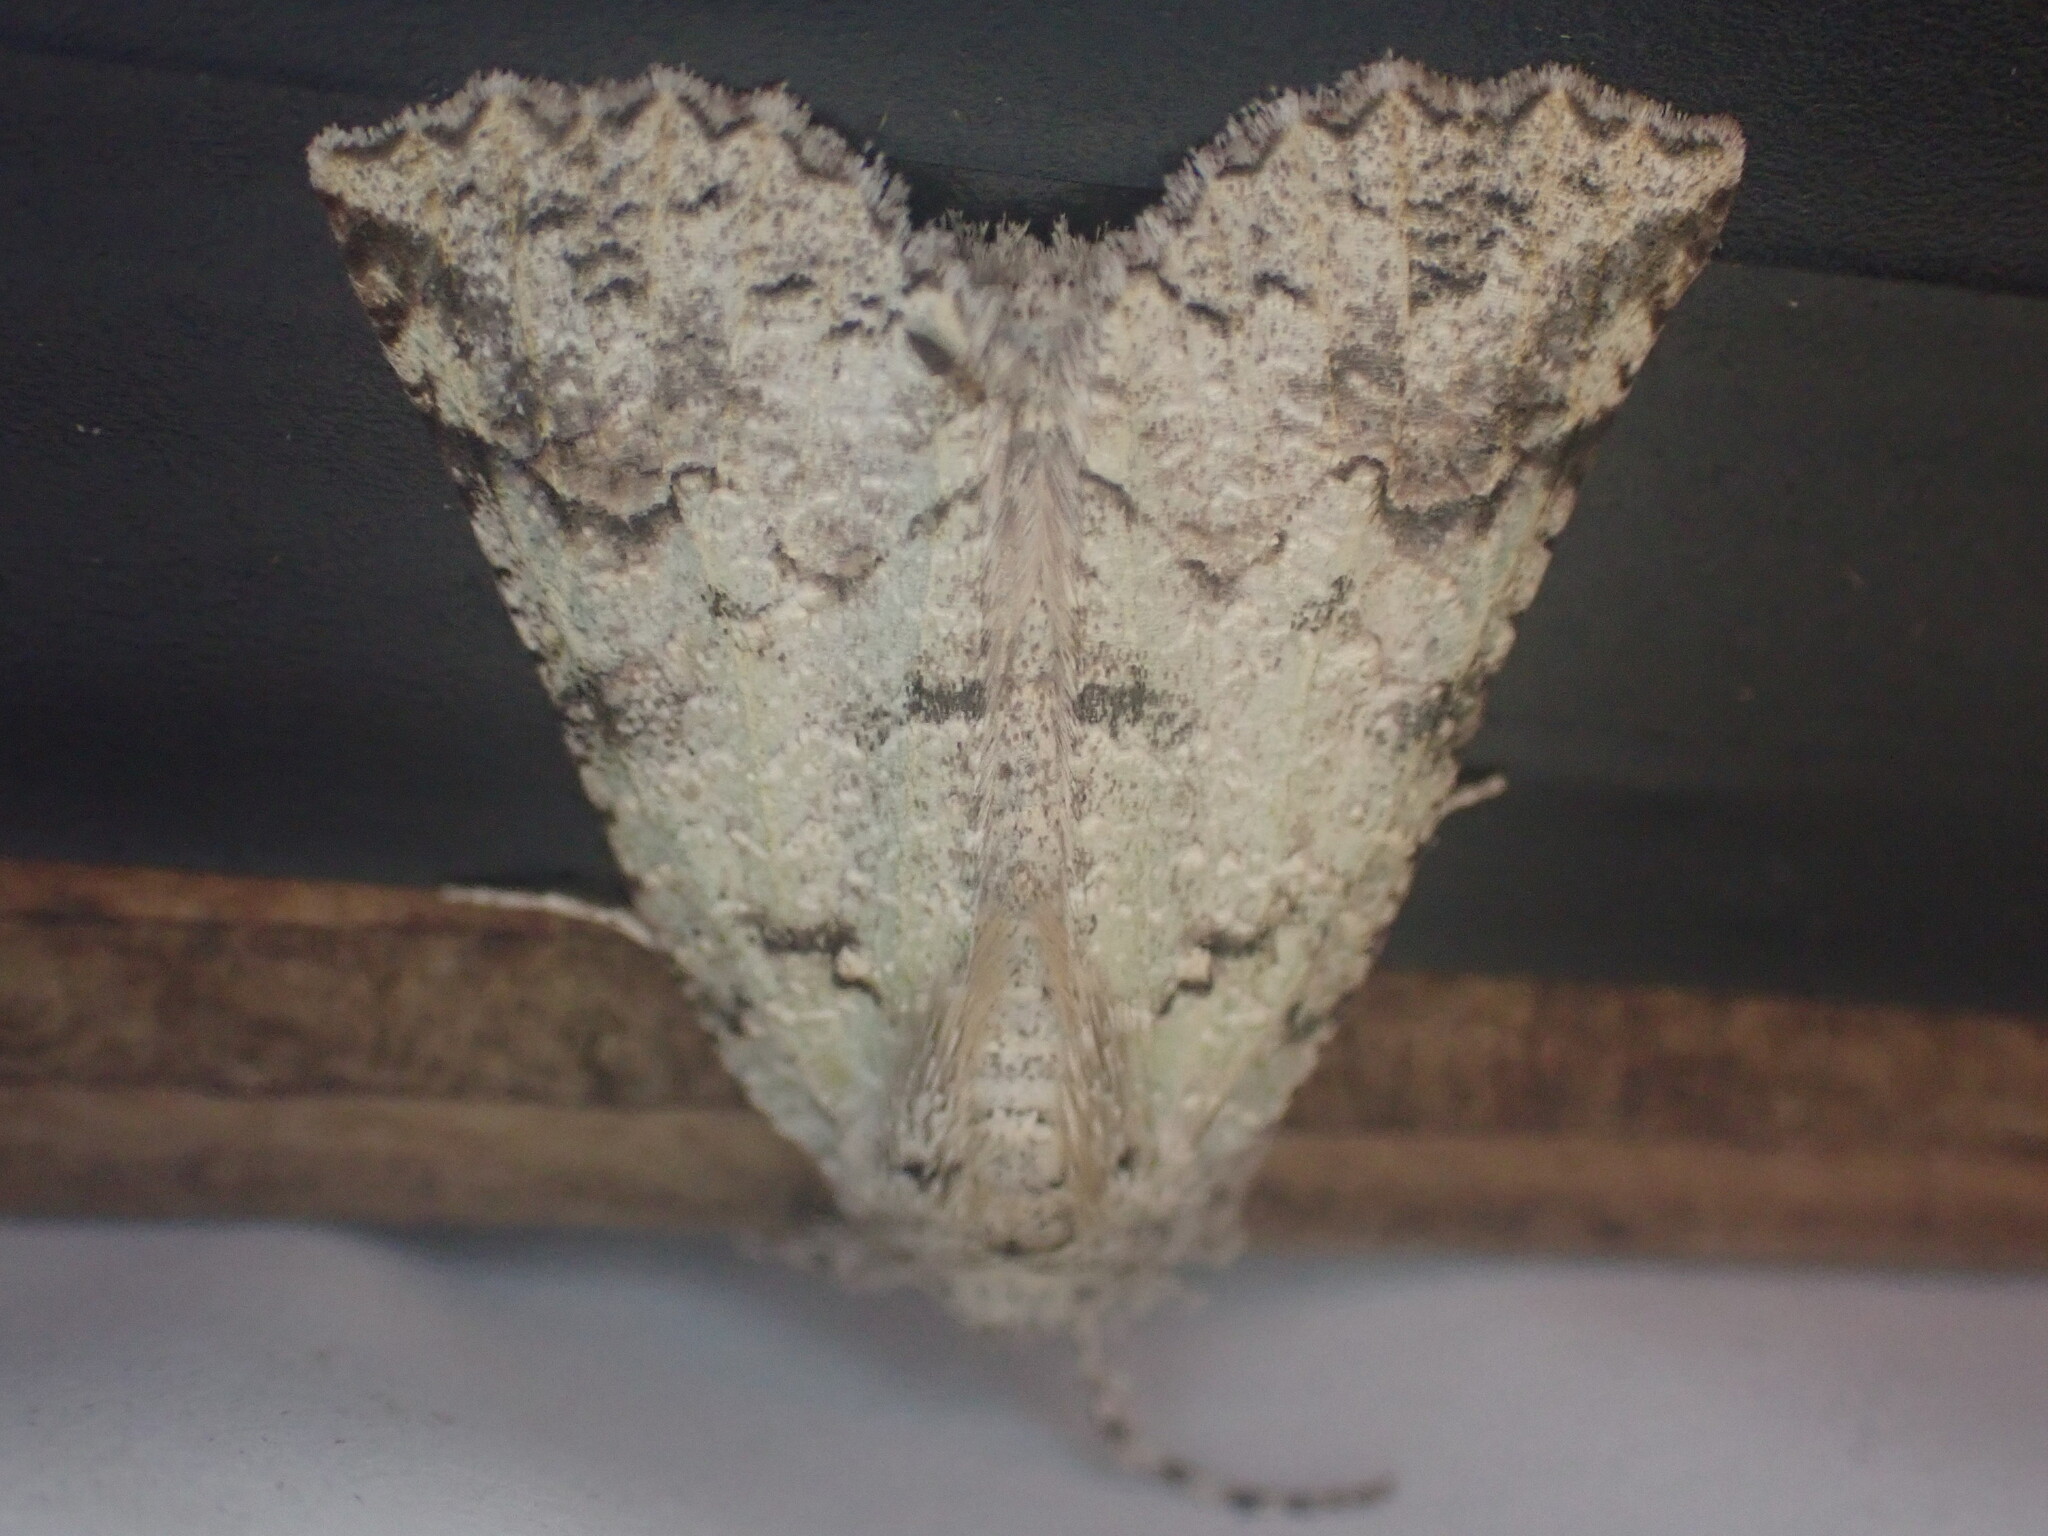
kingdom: Animalia
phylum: Arthropoda
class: Insecta
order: Lepidoptera
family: Geometridae
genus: Declana
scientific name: Declana floccosa
